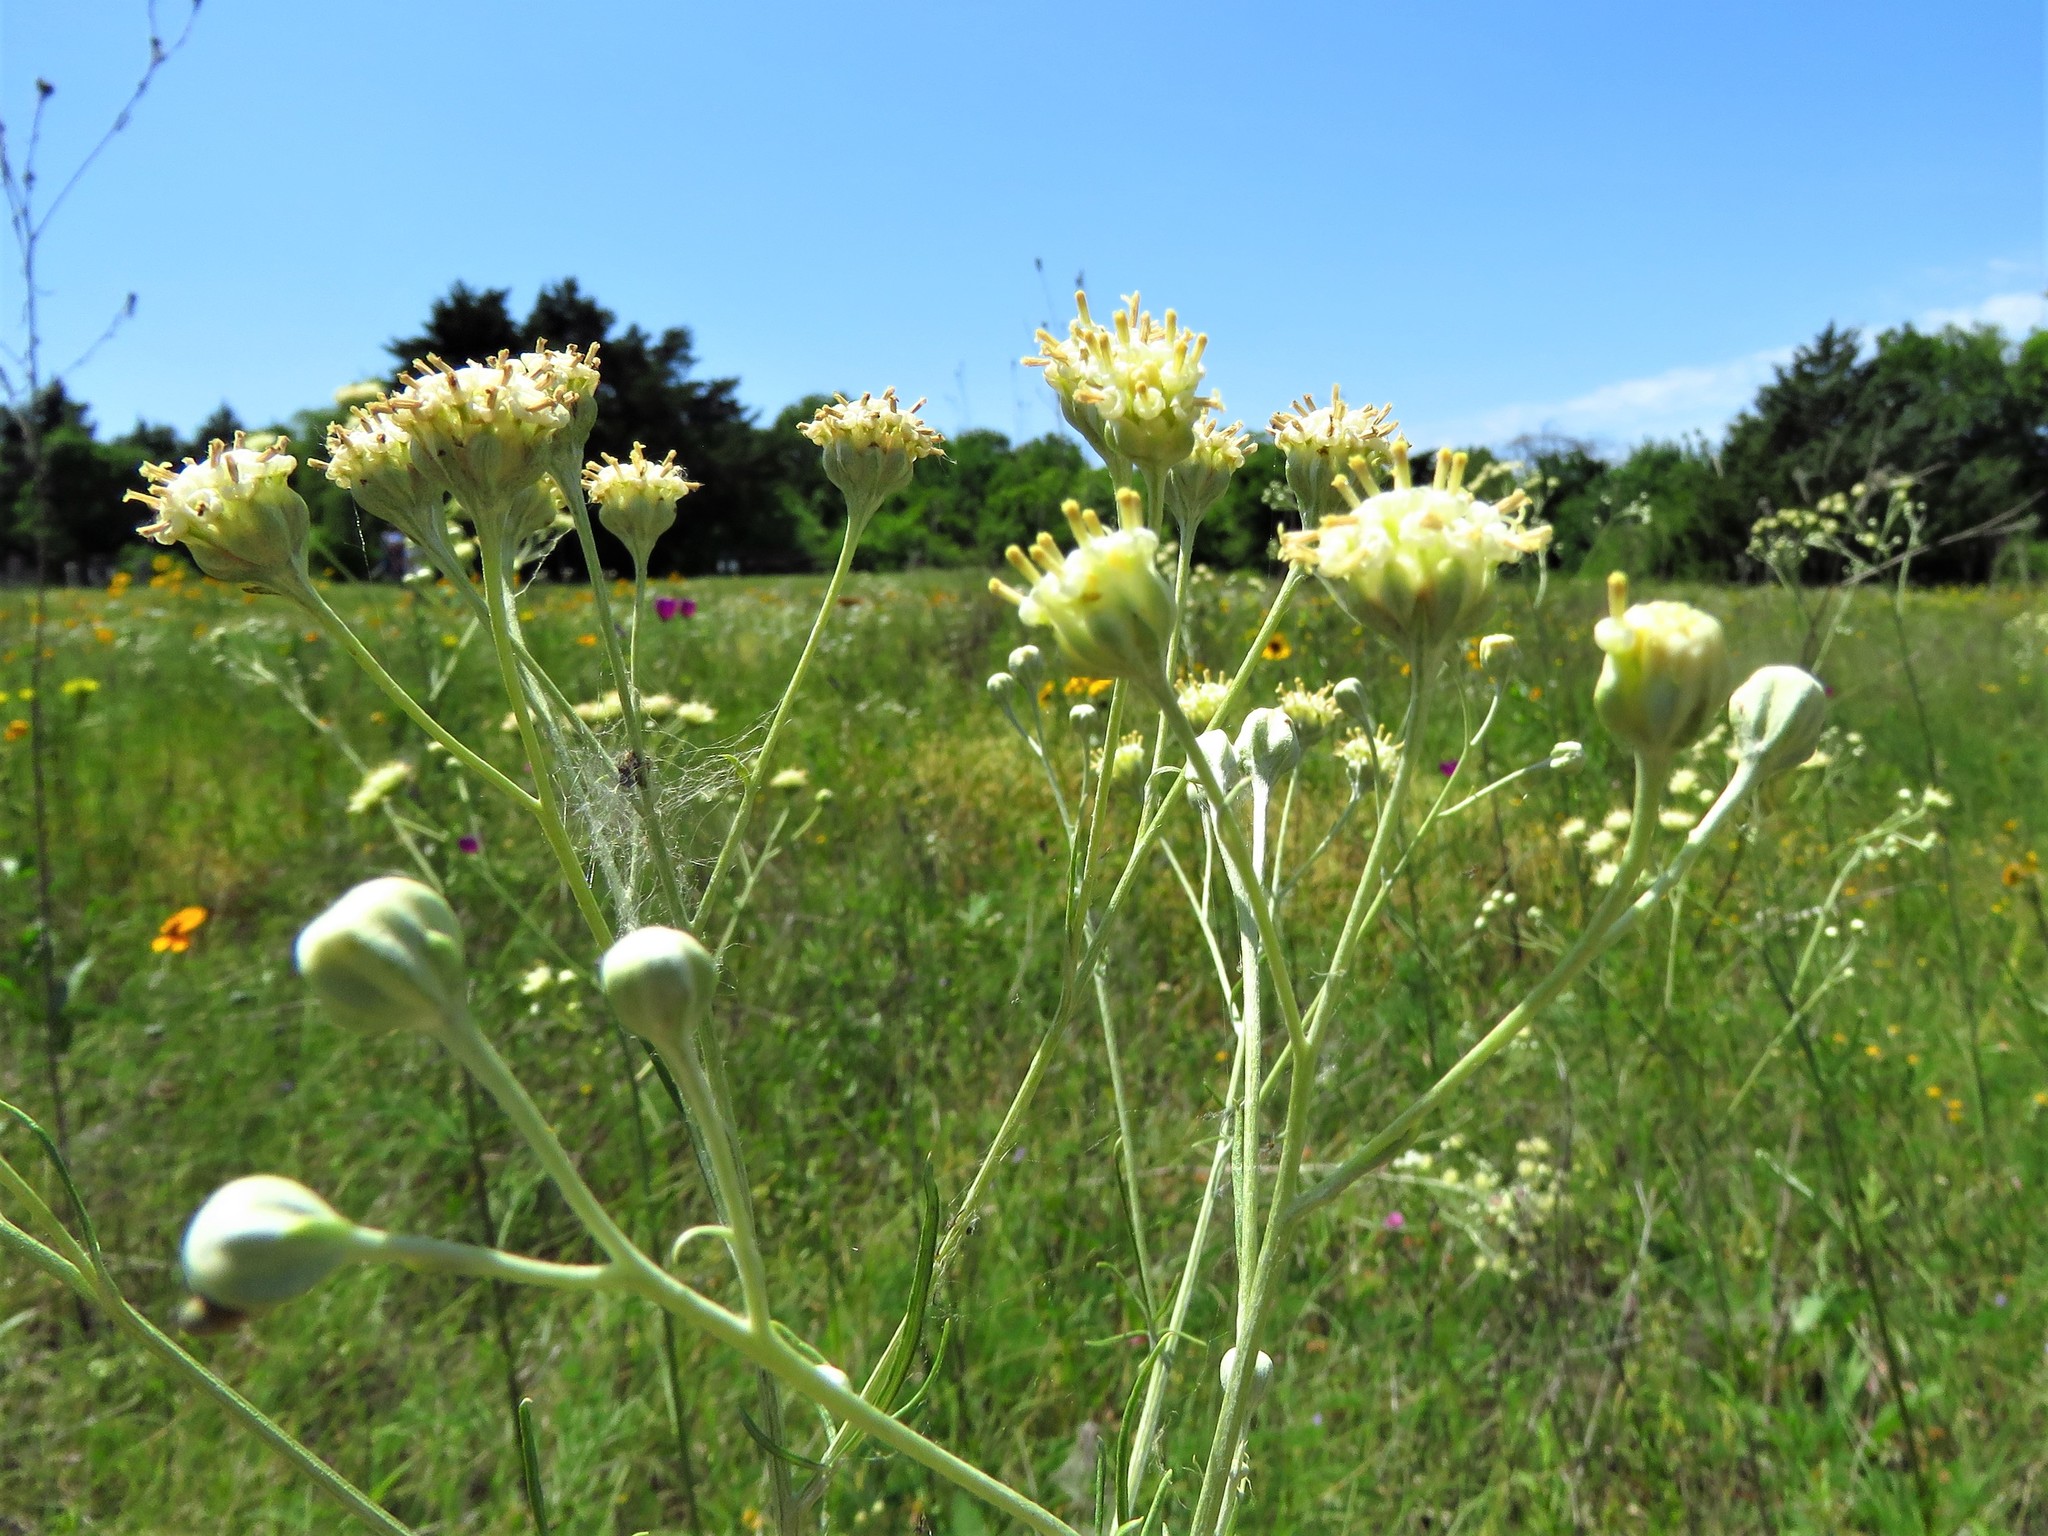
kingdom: Plantae
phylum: Tracheophyta
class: Magnoliopsida
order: Asterales
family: Asteraceae
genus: Hymenopappus
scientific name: Hymenopappus scabiosaeus
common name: Carolina woollywhite
